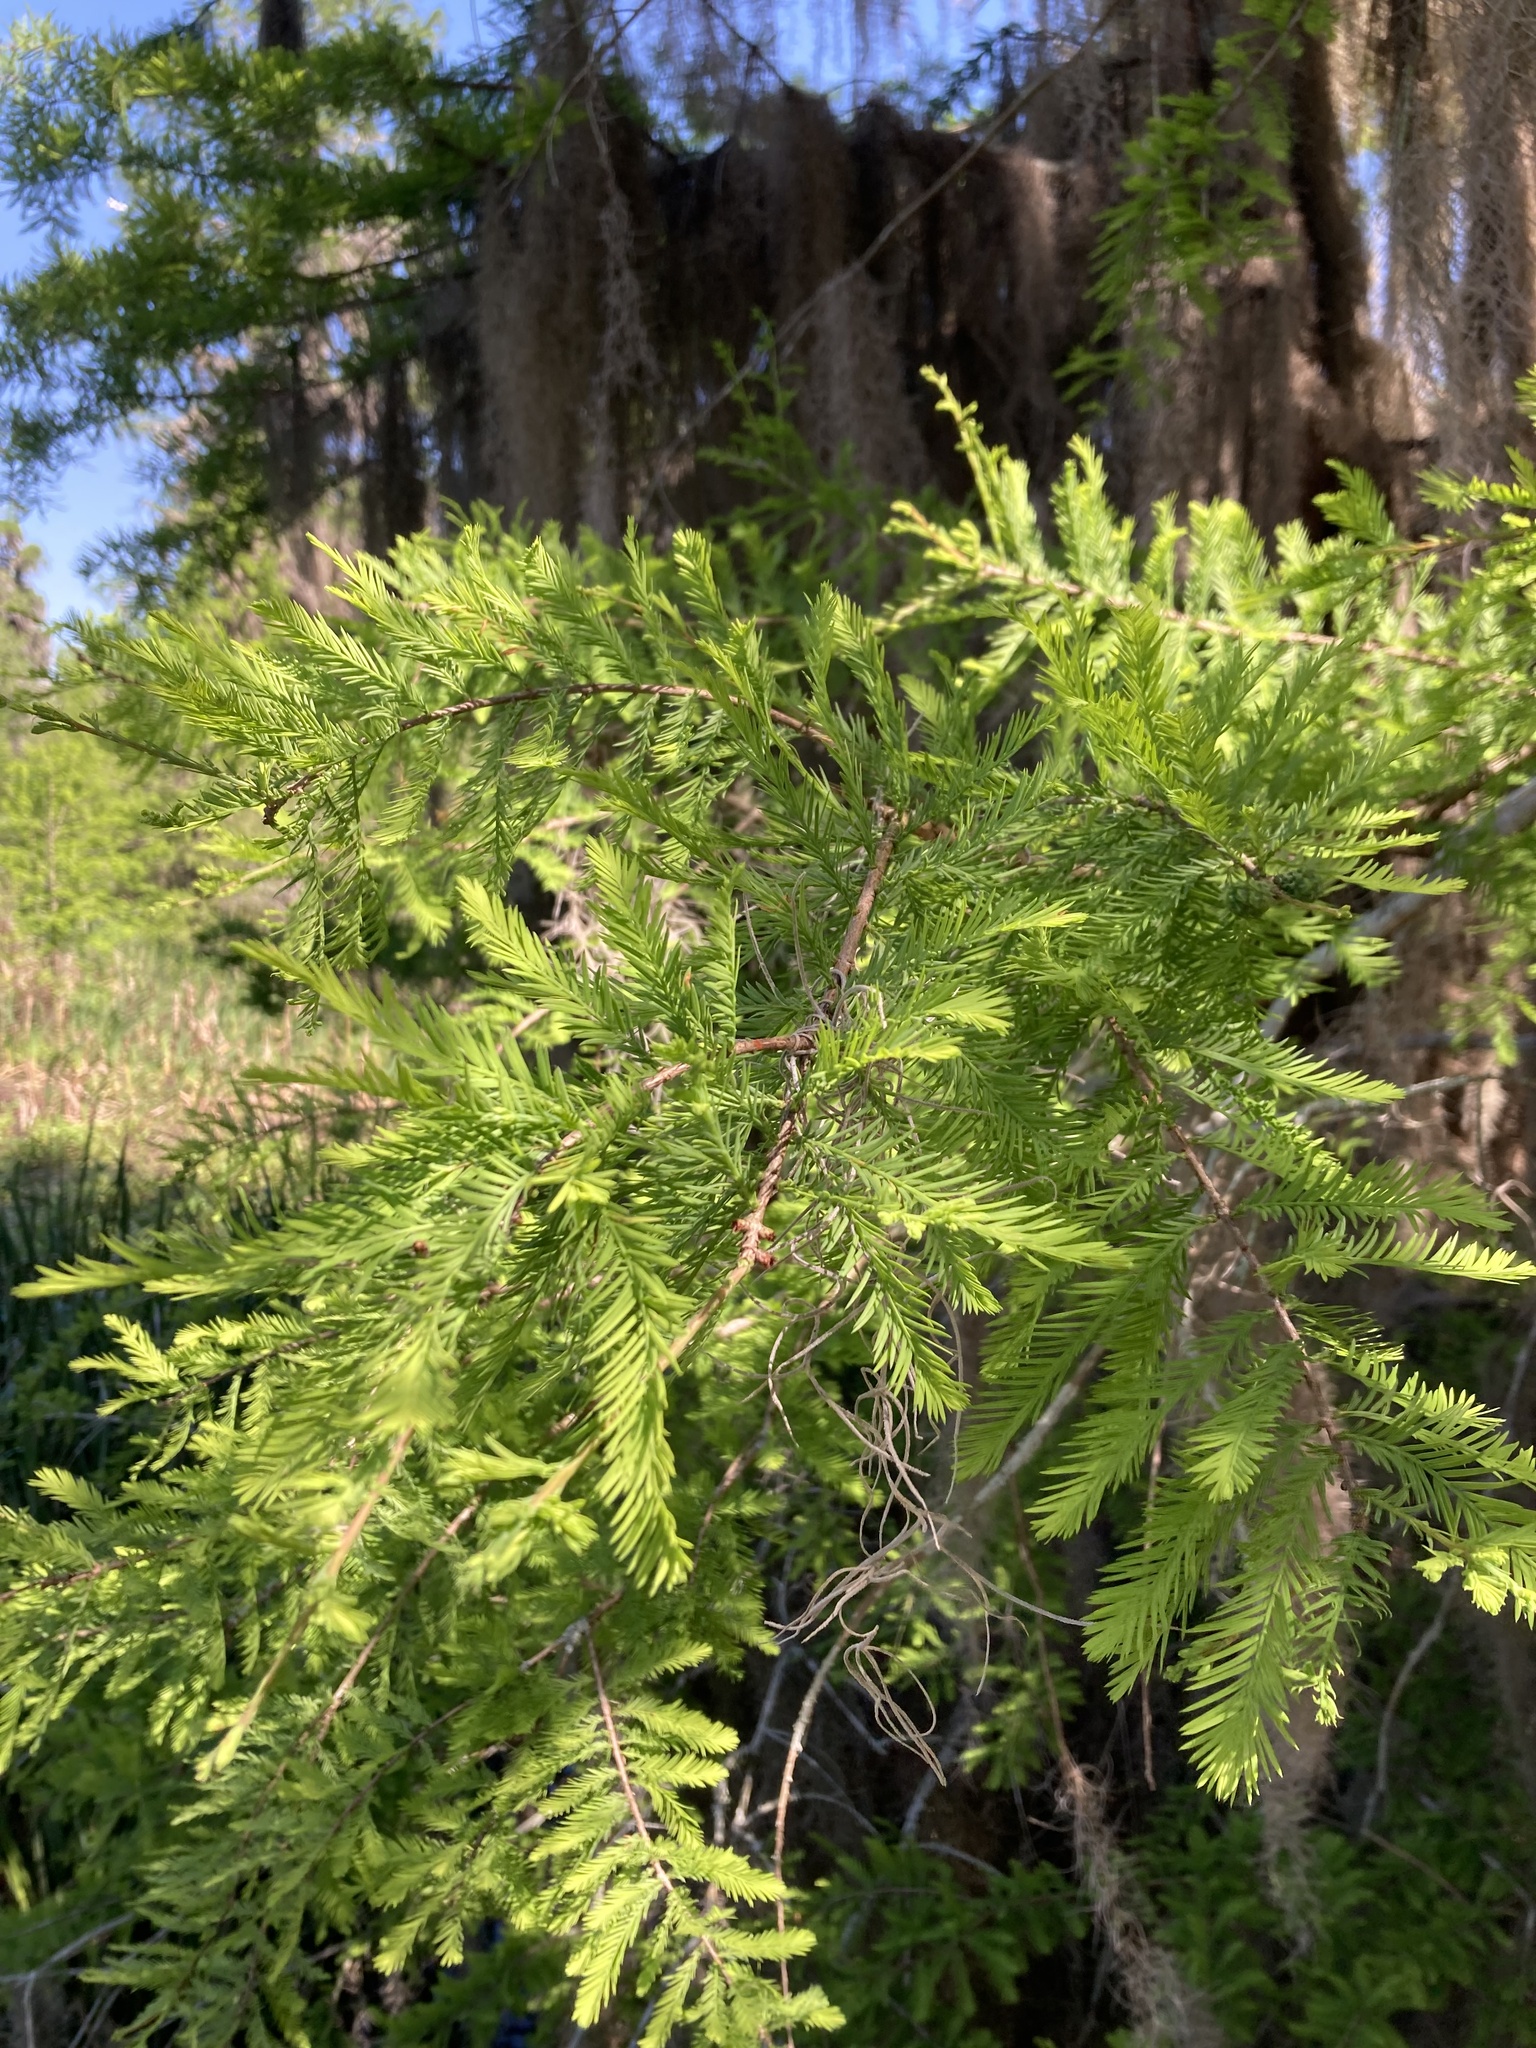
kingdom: Plantae
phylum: Tracheophyta
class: Pinopsida
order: Pinales
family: Cupressaceae
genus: Taxodium
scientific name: Taxodium distichum
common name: Bald cypress
